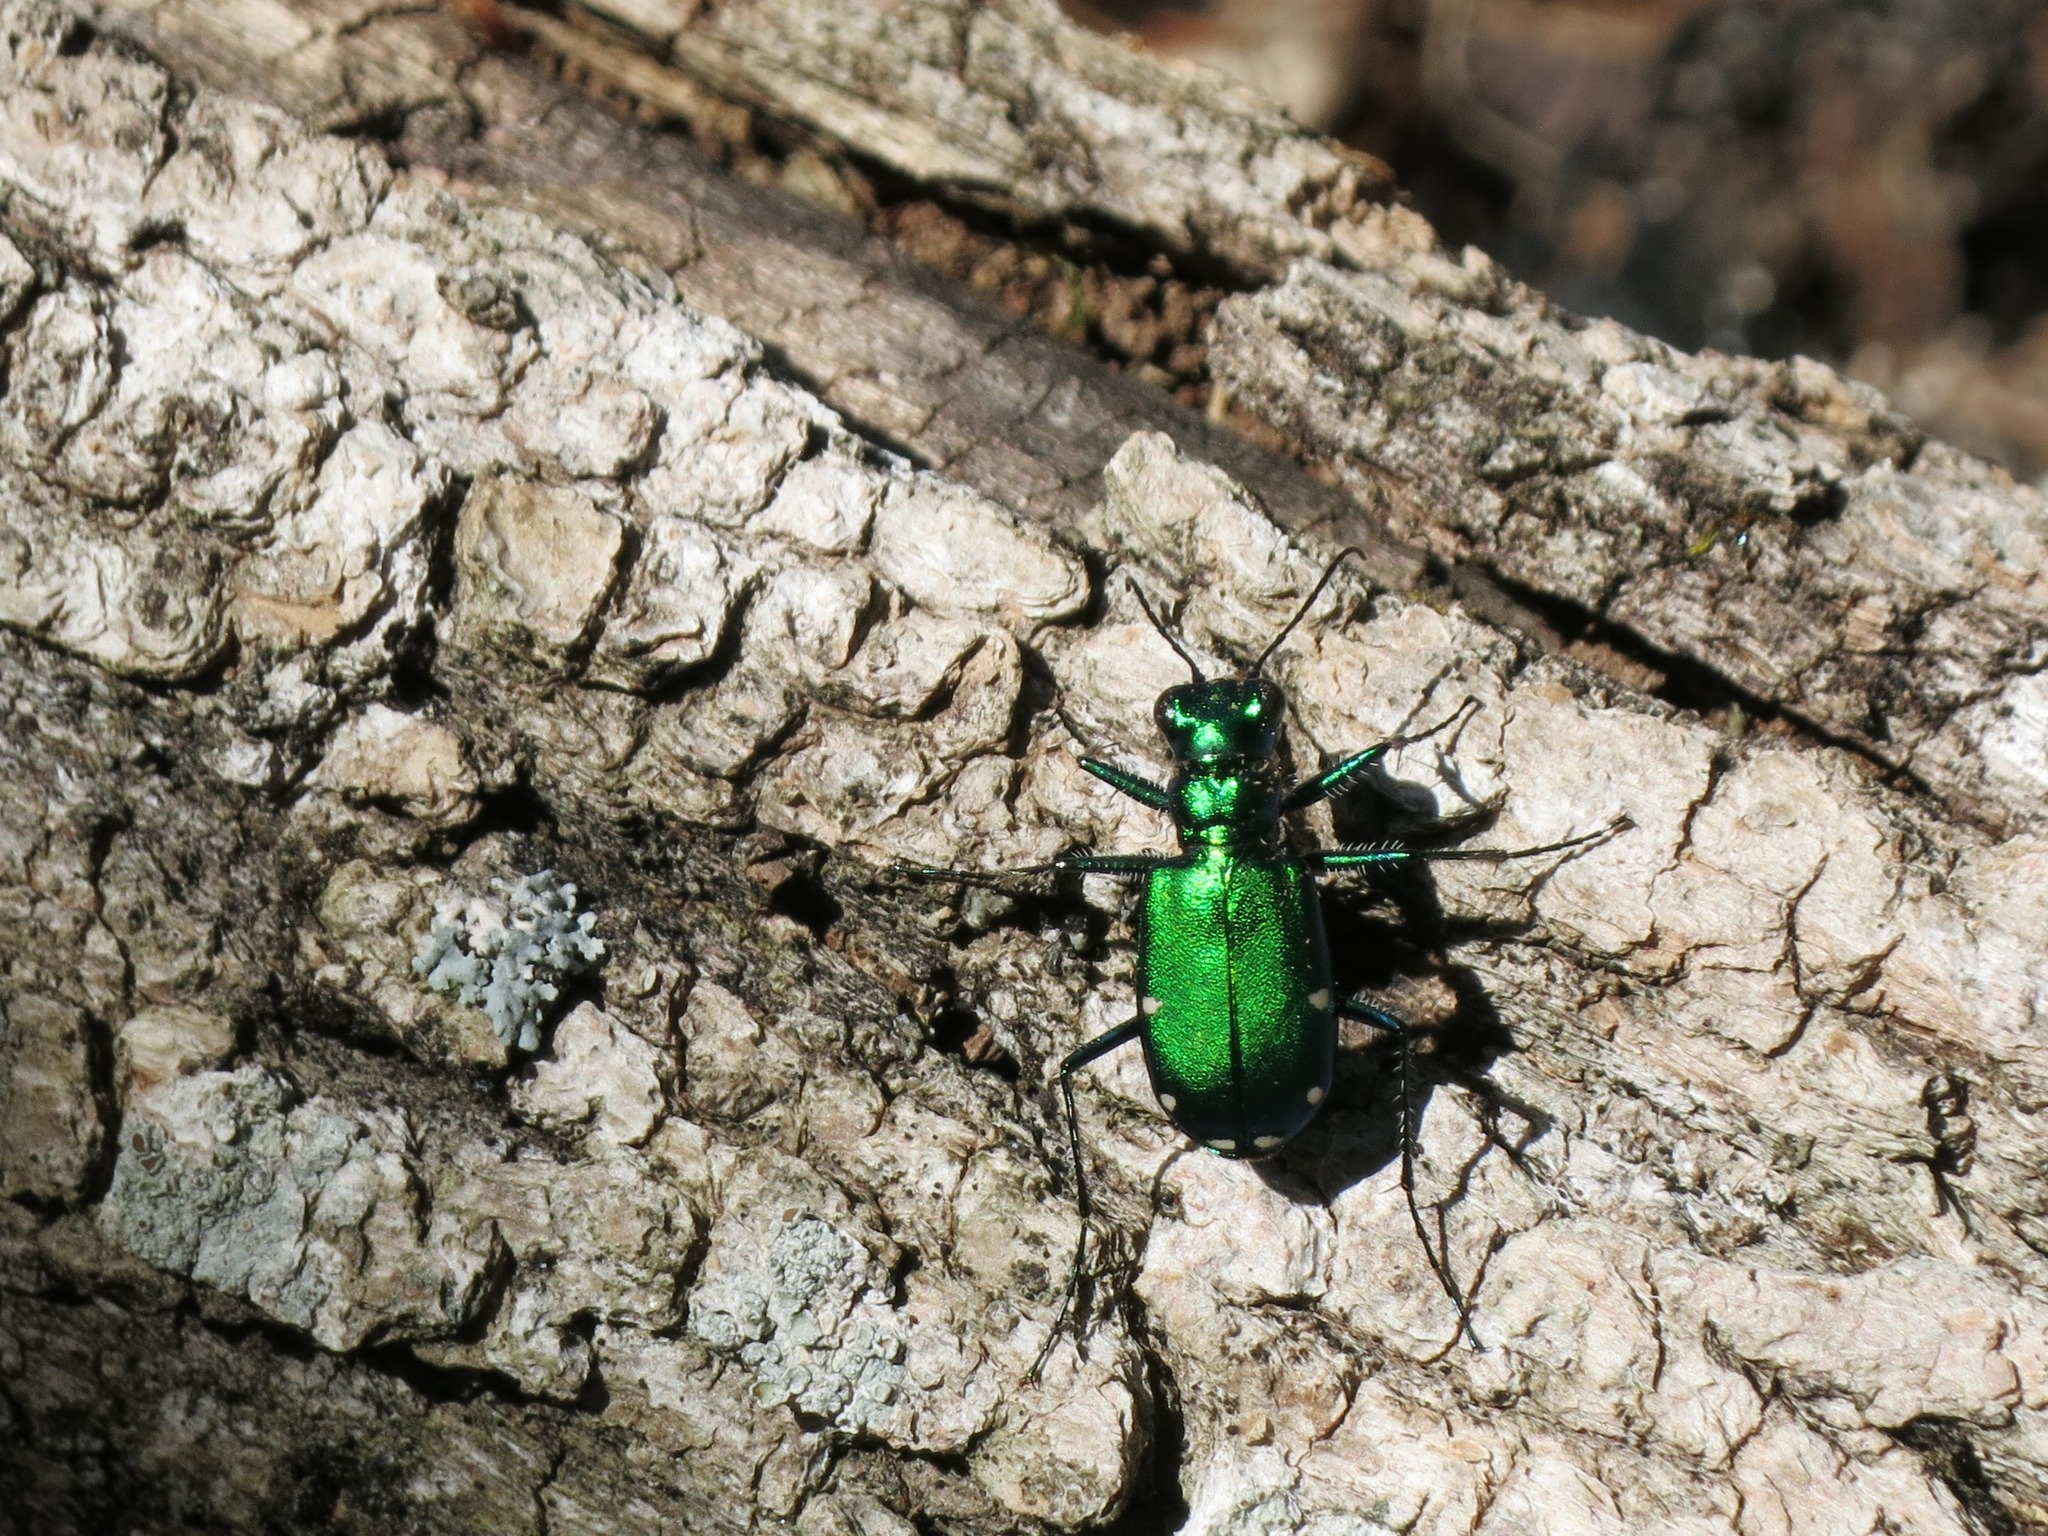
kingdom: Animalia
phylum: Arthropoda
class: Insecta
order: Coleoptera
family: Carabidae
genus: Cicindela
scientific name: Cicindela sexguttata
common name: Six-spotted tiger beetle
